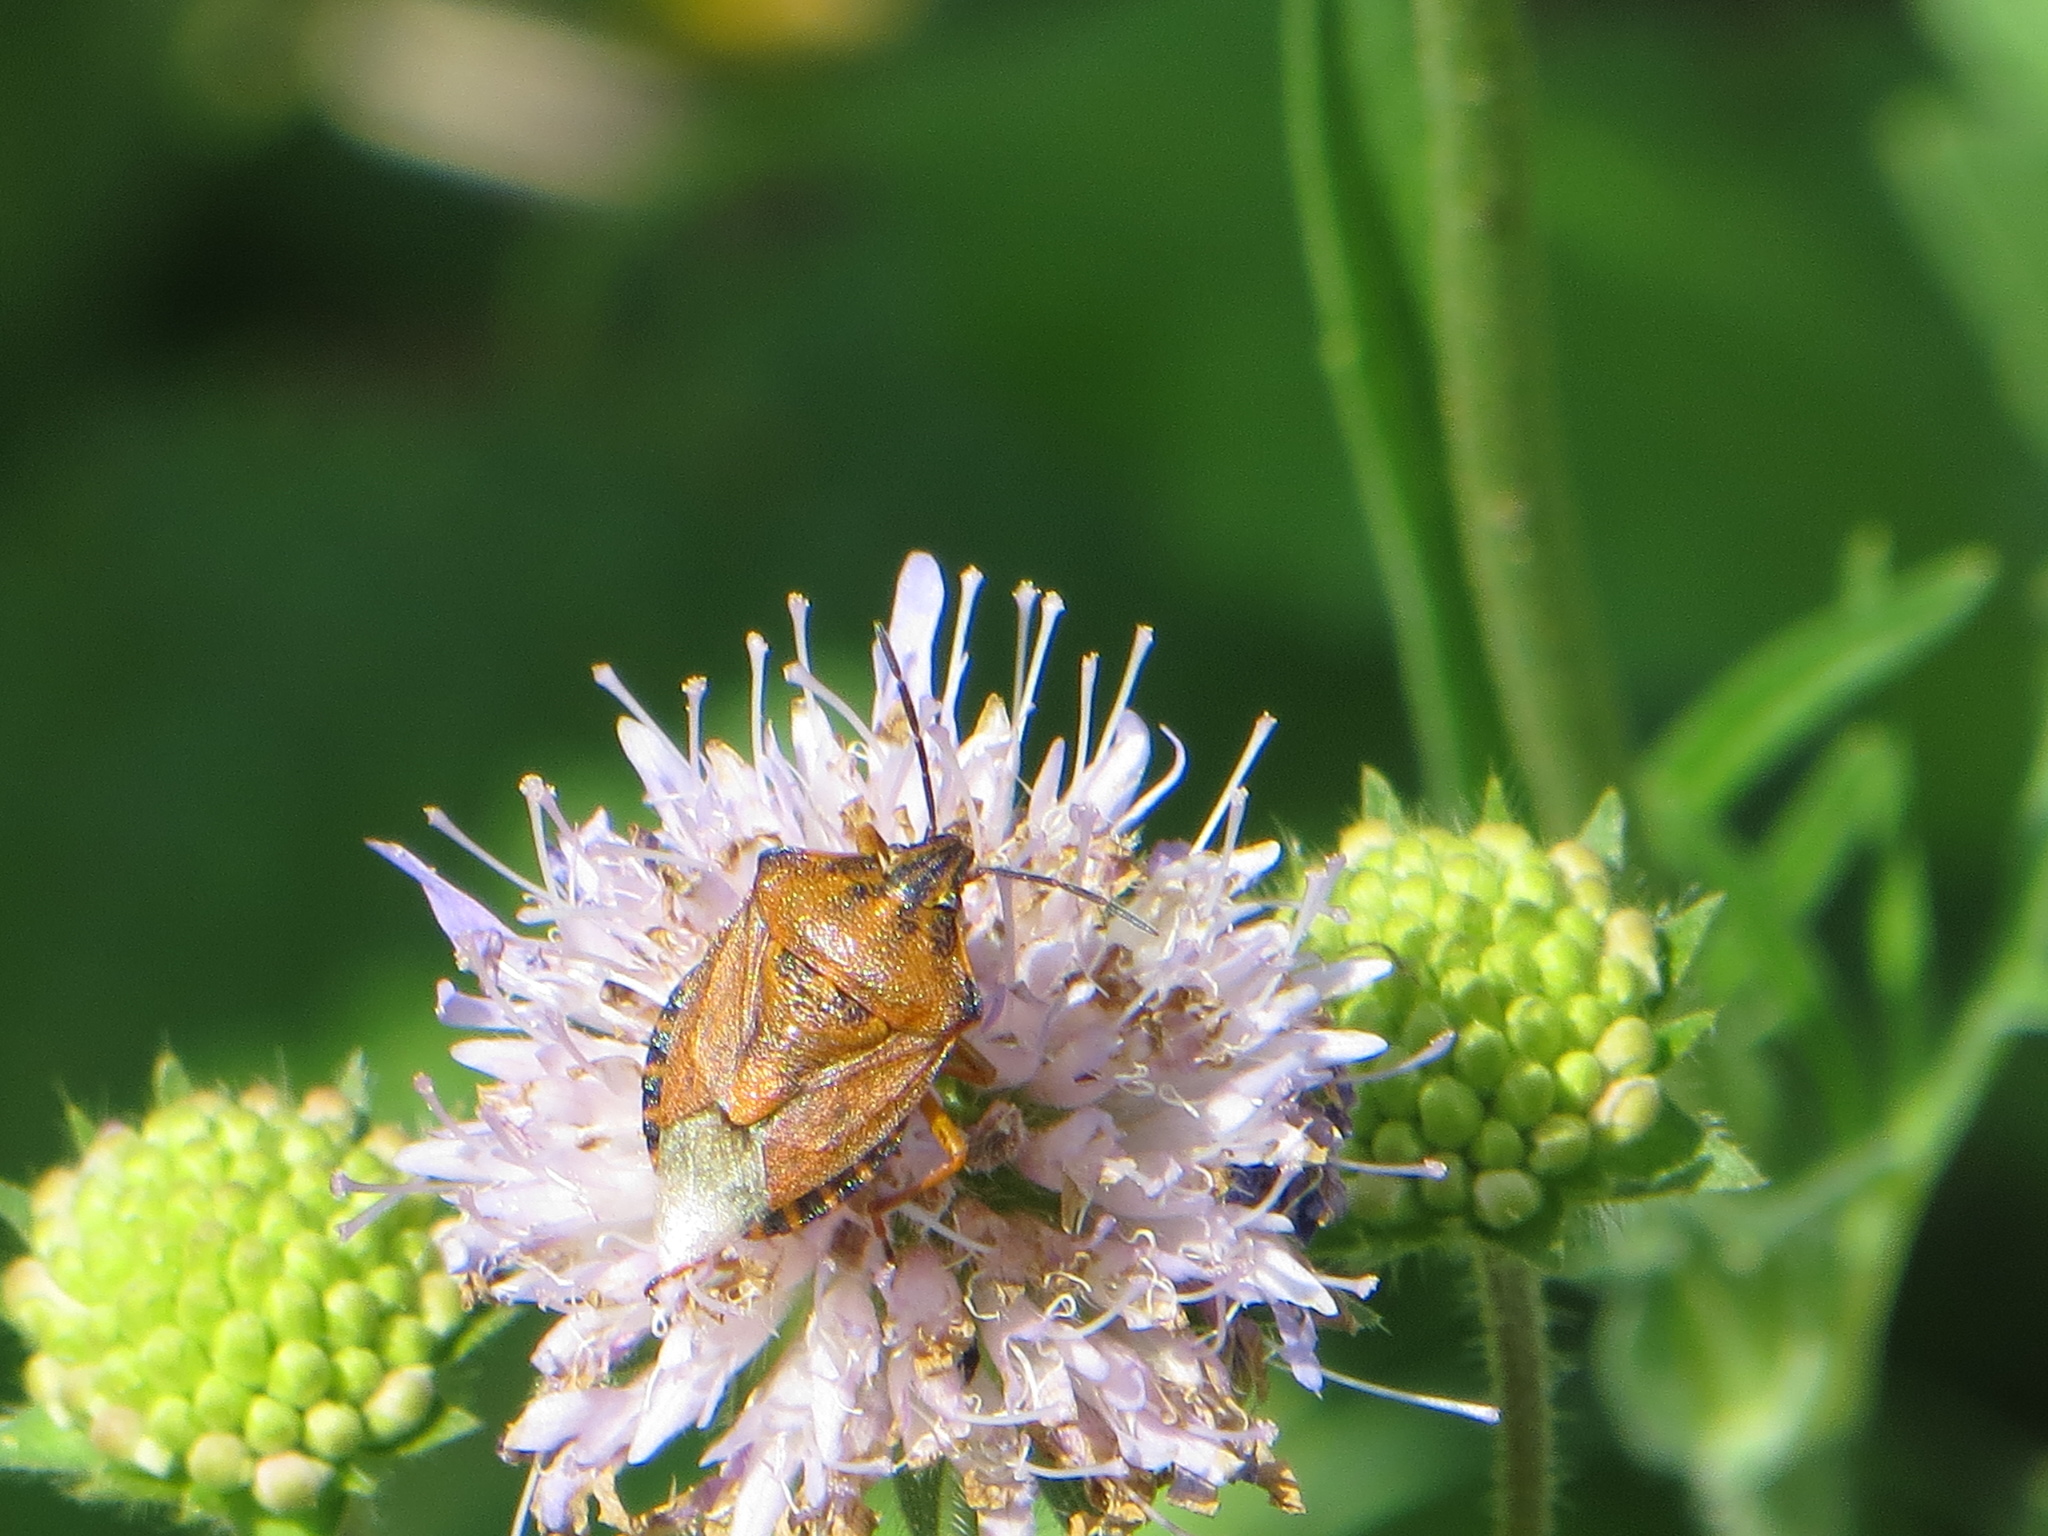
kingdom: Animalia
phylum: Arthropoda
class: Insecta
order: Hemiptera
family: Pentatomidae
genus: Carpocoris
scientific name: Carpocoris purpureipennis
